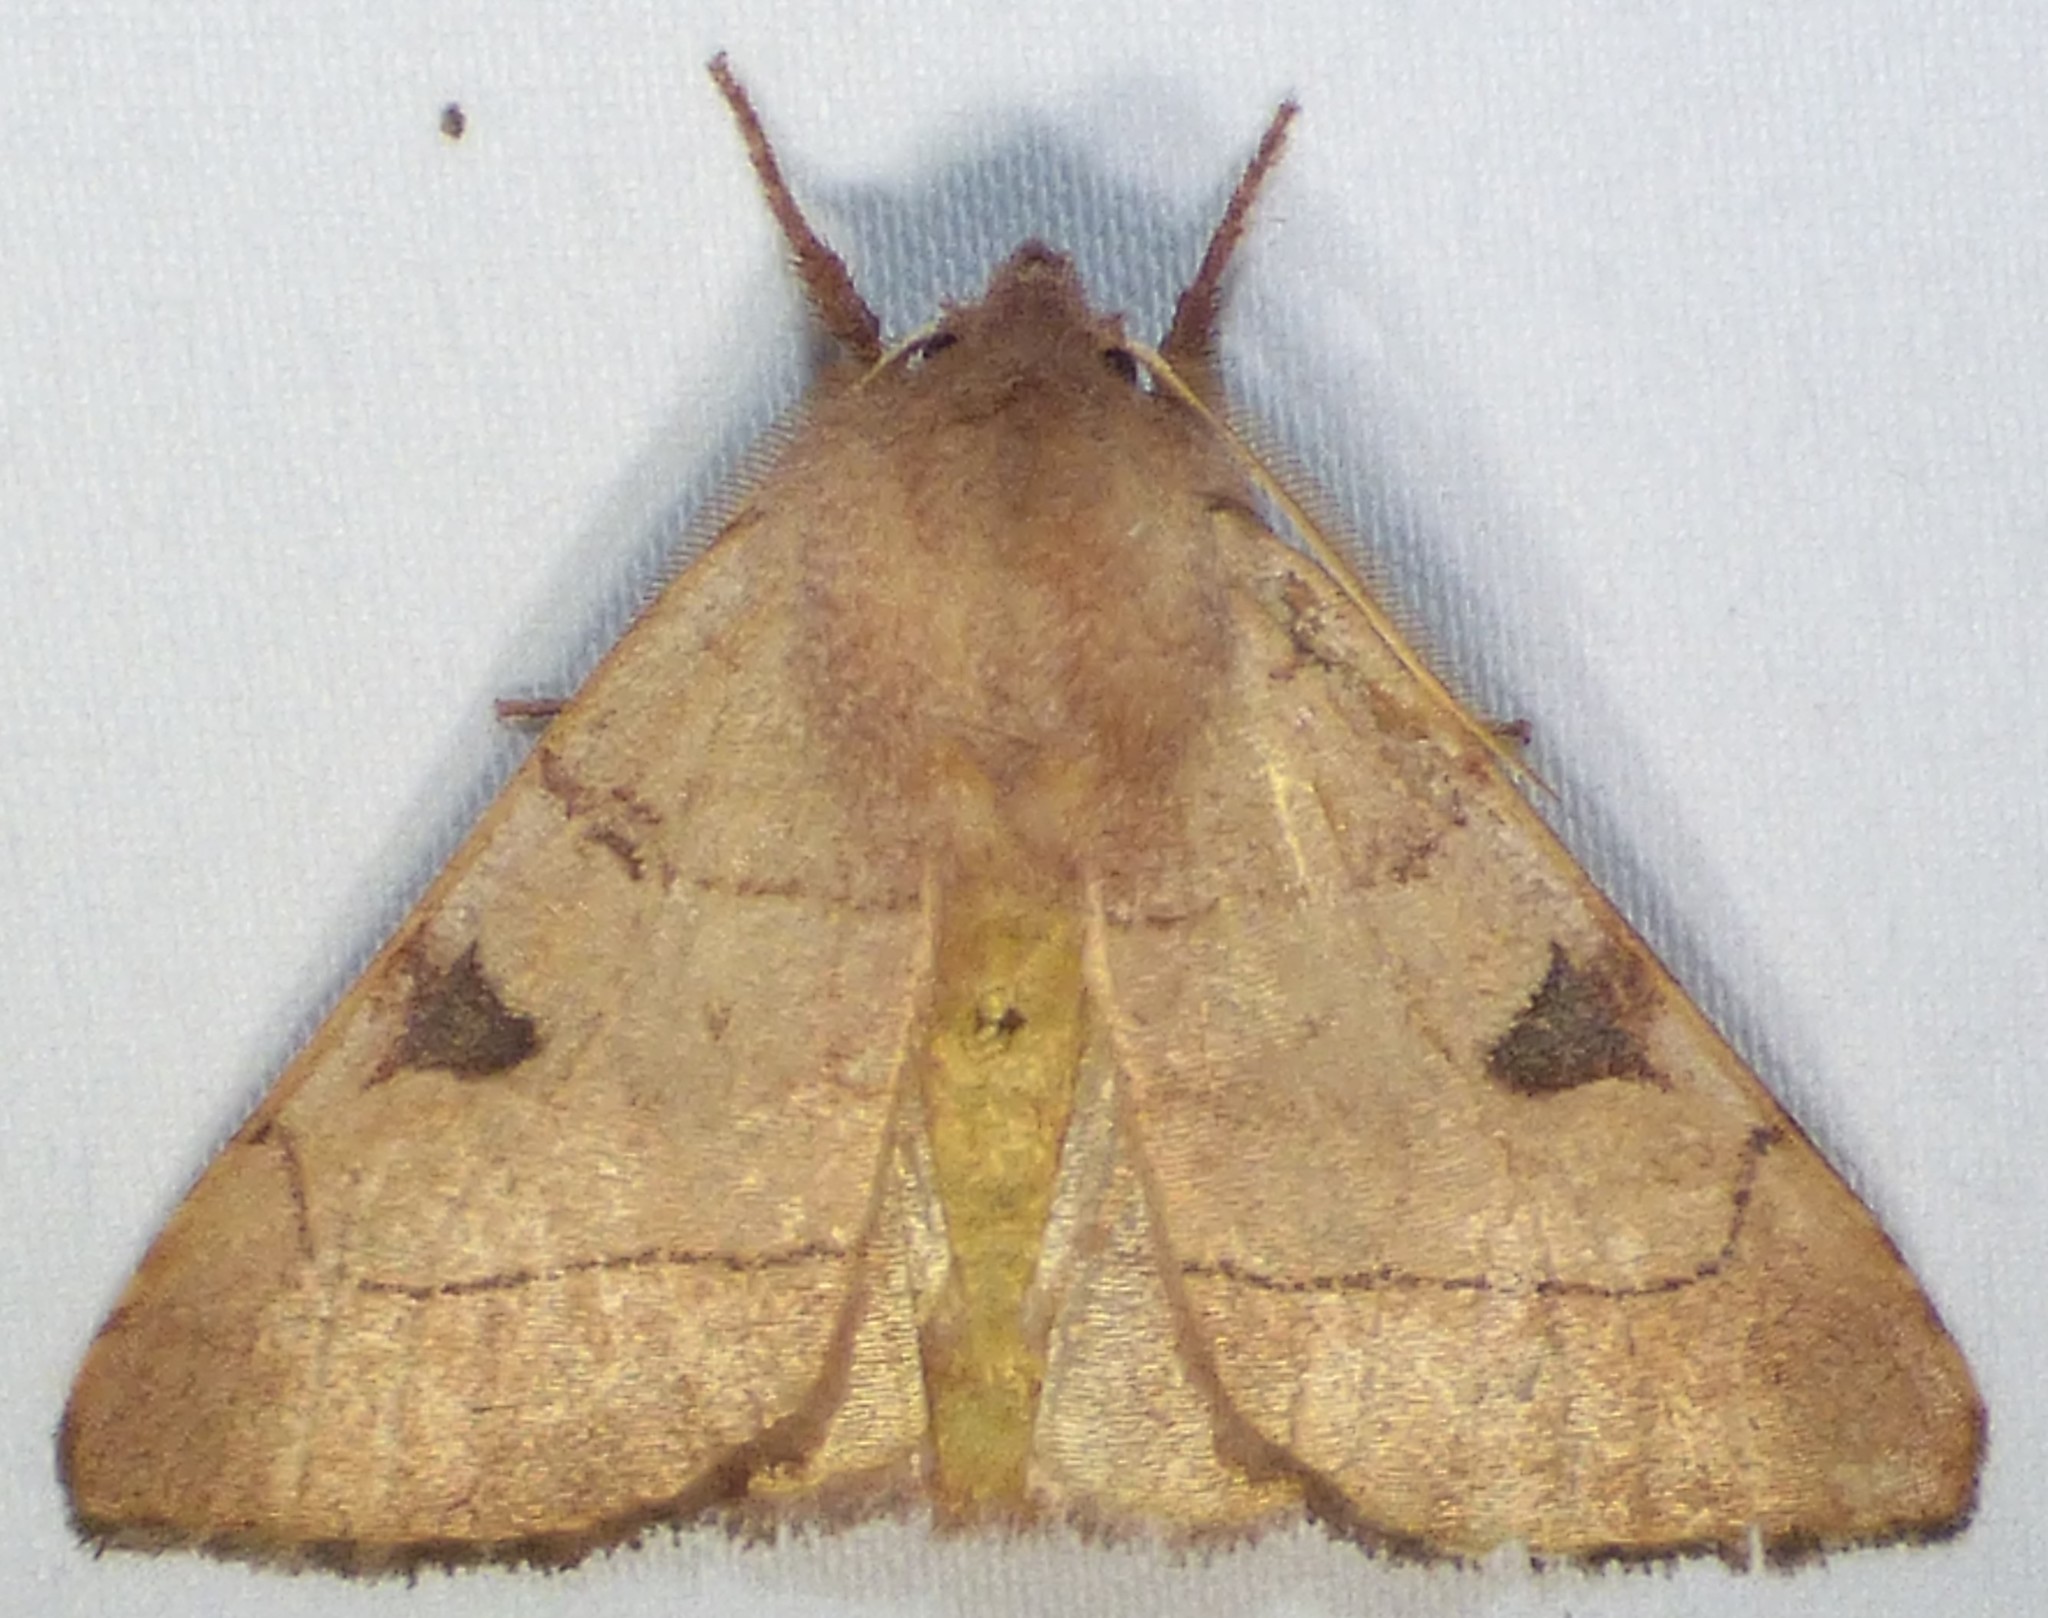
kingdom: Animalia
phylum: Arthropoda
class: Insecta
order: Lepidoptera
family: Noctuidae
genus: Choephora
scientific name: Choephora fungorum
